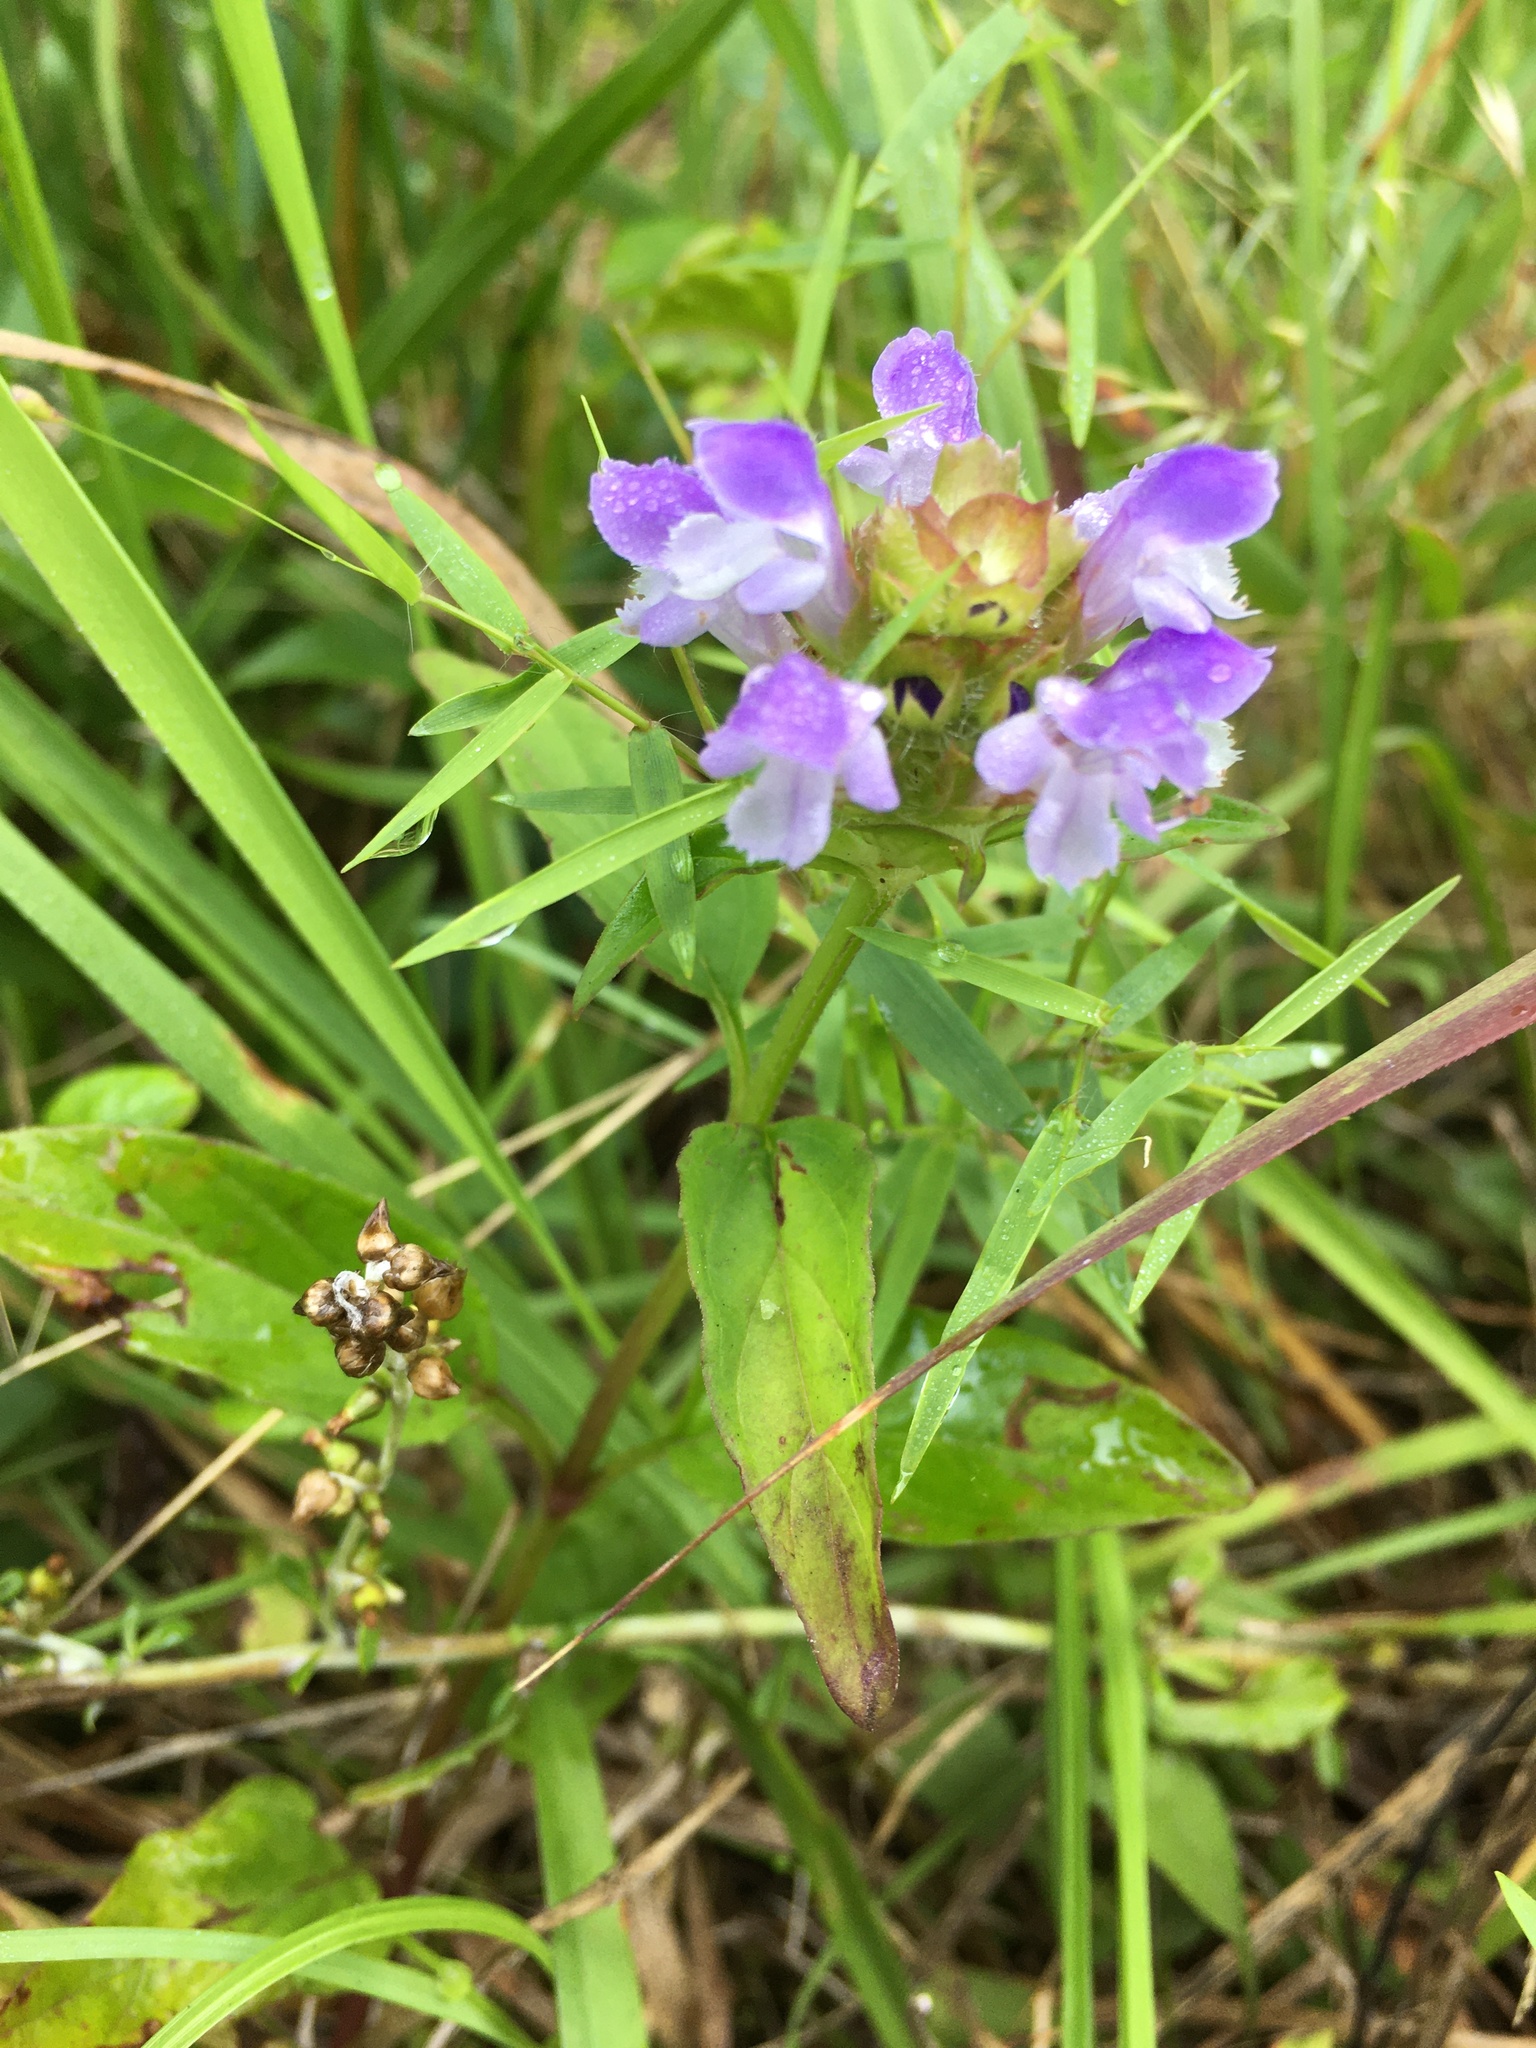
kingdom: Plantae
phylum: Tracheophyta
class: Magnoliopsida
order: Lamiales
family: Lamiaceae
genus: Prunella
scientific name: Prunella vulgaris
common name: Heal-all
